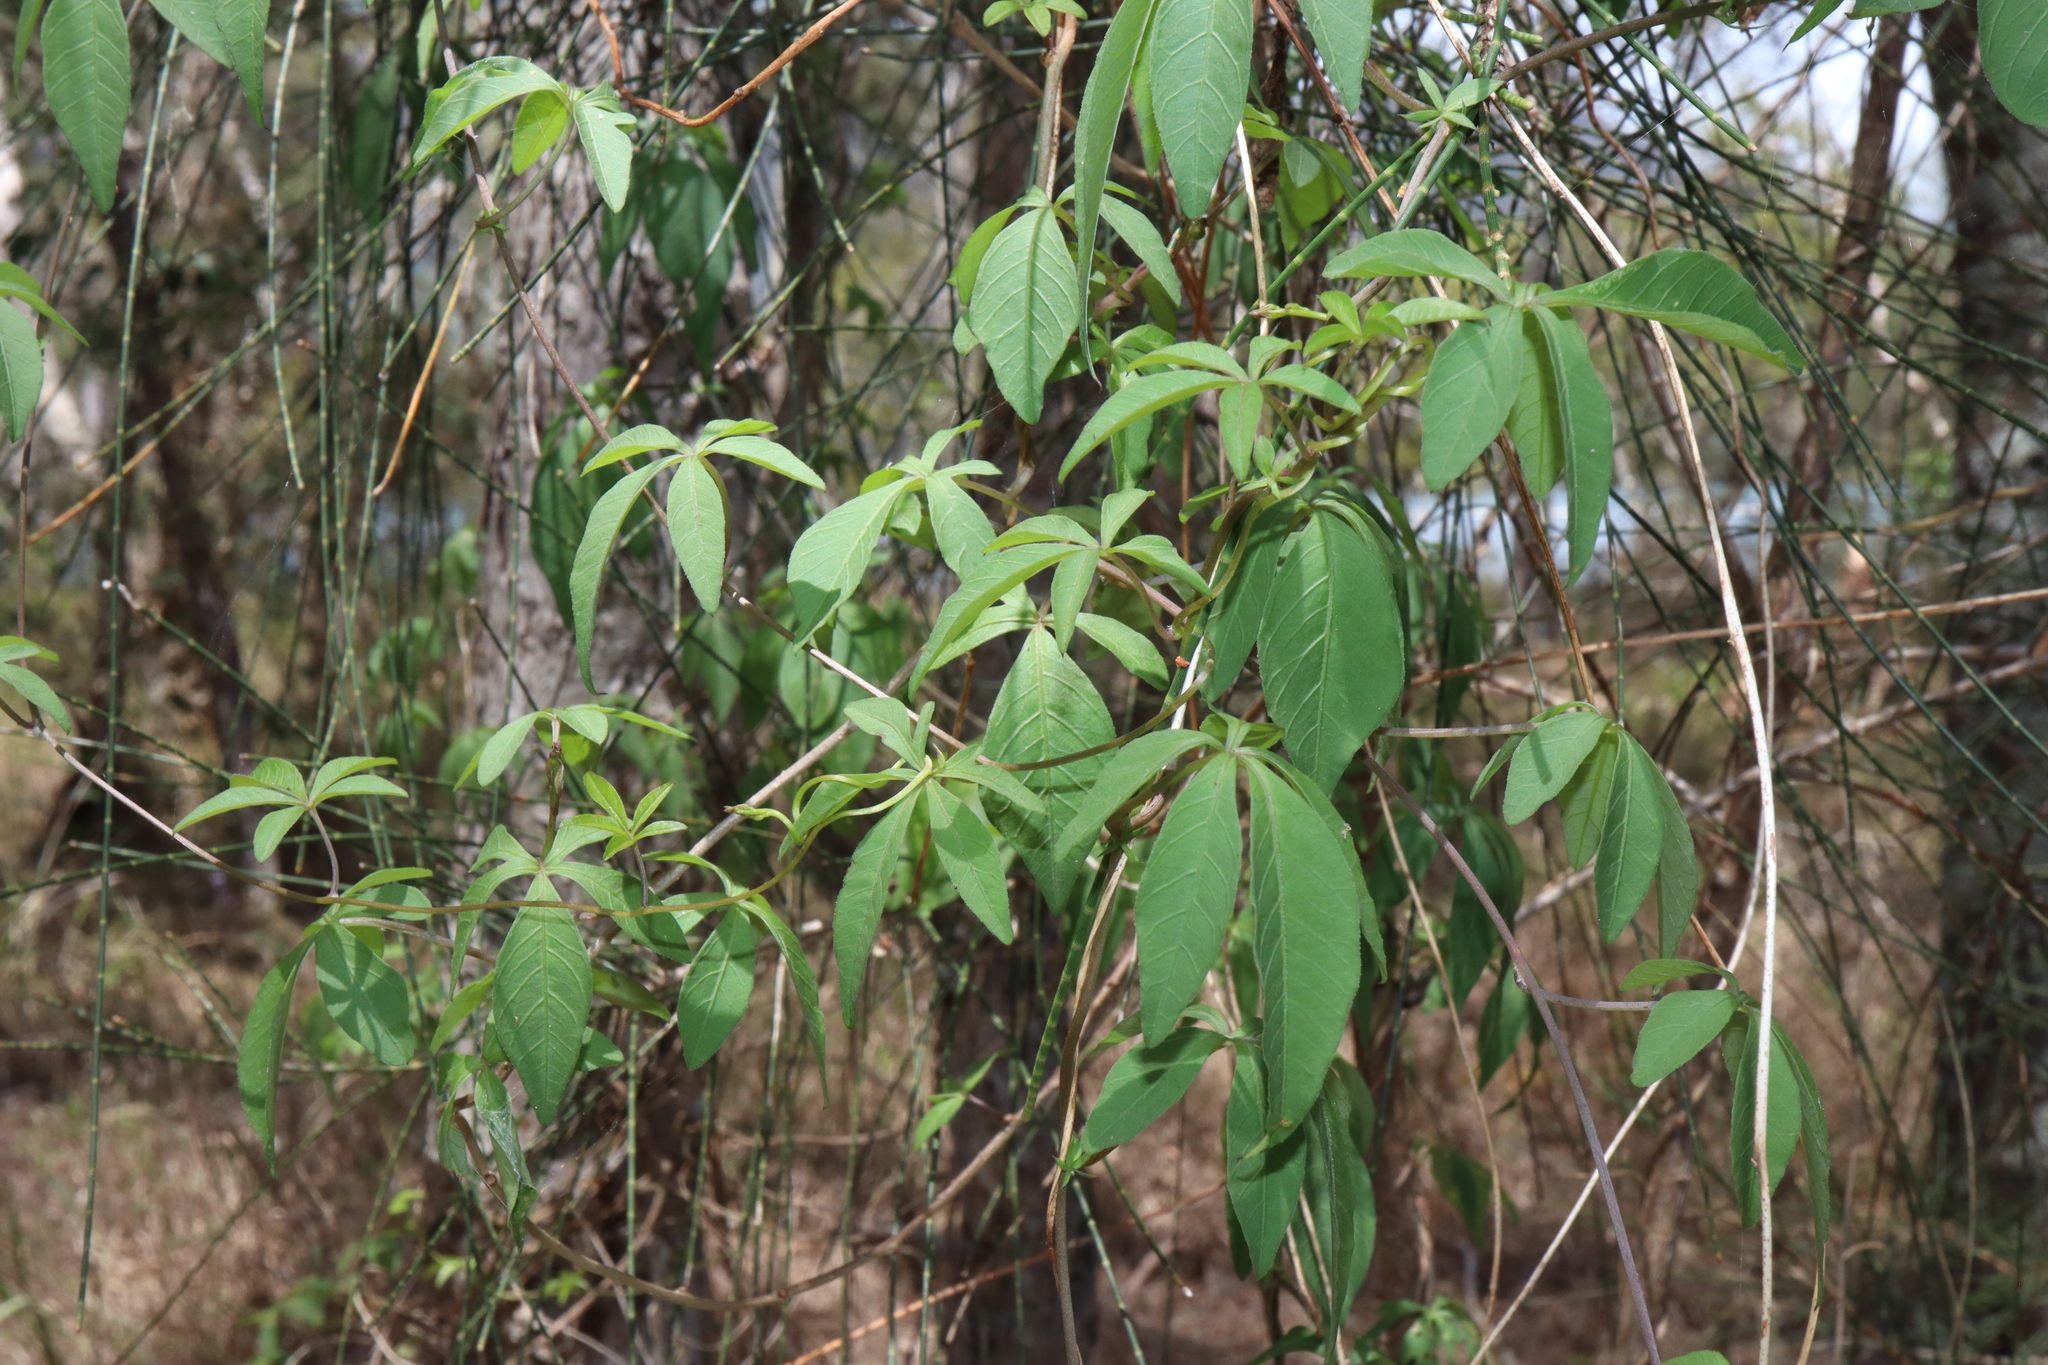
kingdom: Plantae
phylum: Tracheophyta
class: Magnoliopsida
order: Solanales
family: Convolvulaceae
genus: Ipomoea
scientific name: Ipomoea cairica
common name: Mile a minute vine
